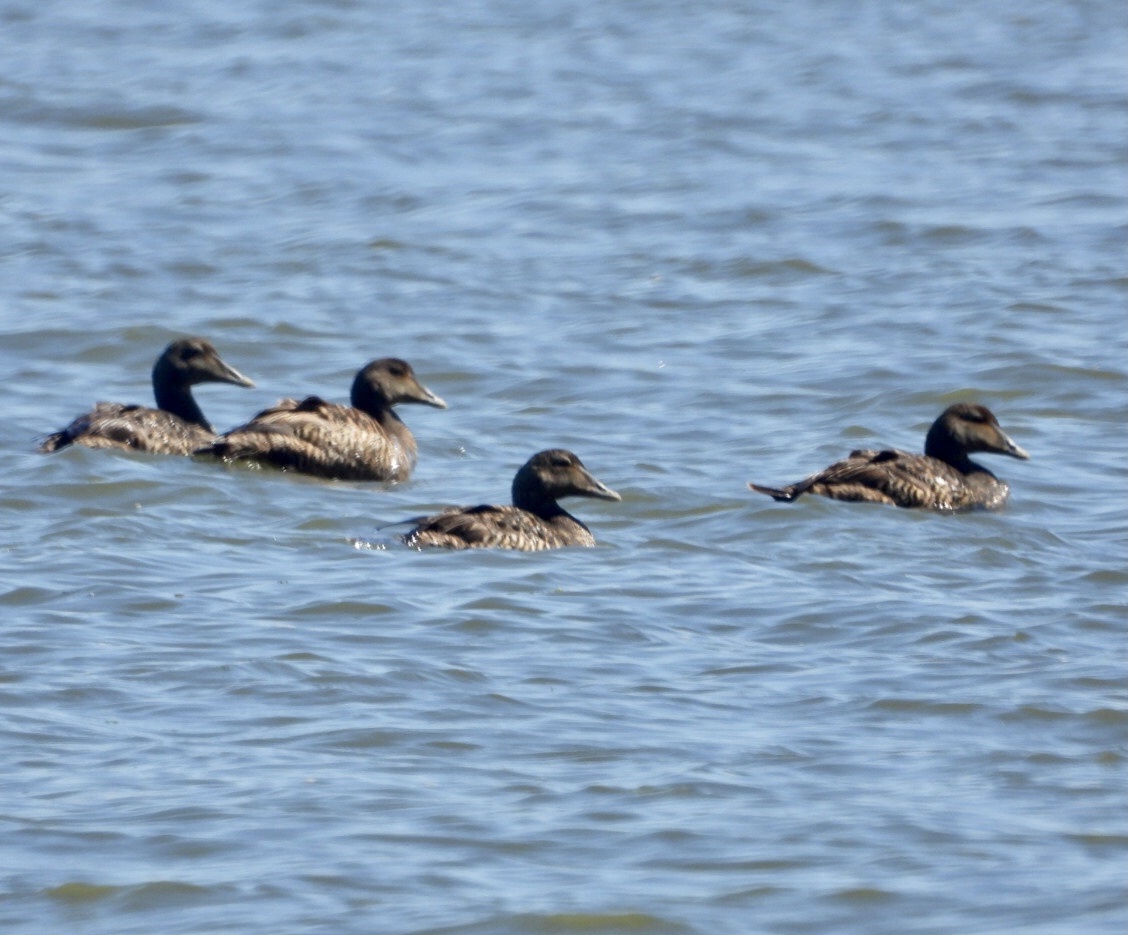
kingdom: Animalia
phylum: Chordata
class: Aves
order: Anseriformes
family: Anatidae
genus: Somateria
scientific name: Somateria mollissima
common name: Common eider
